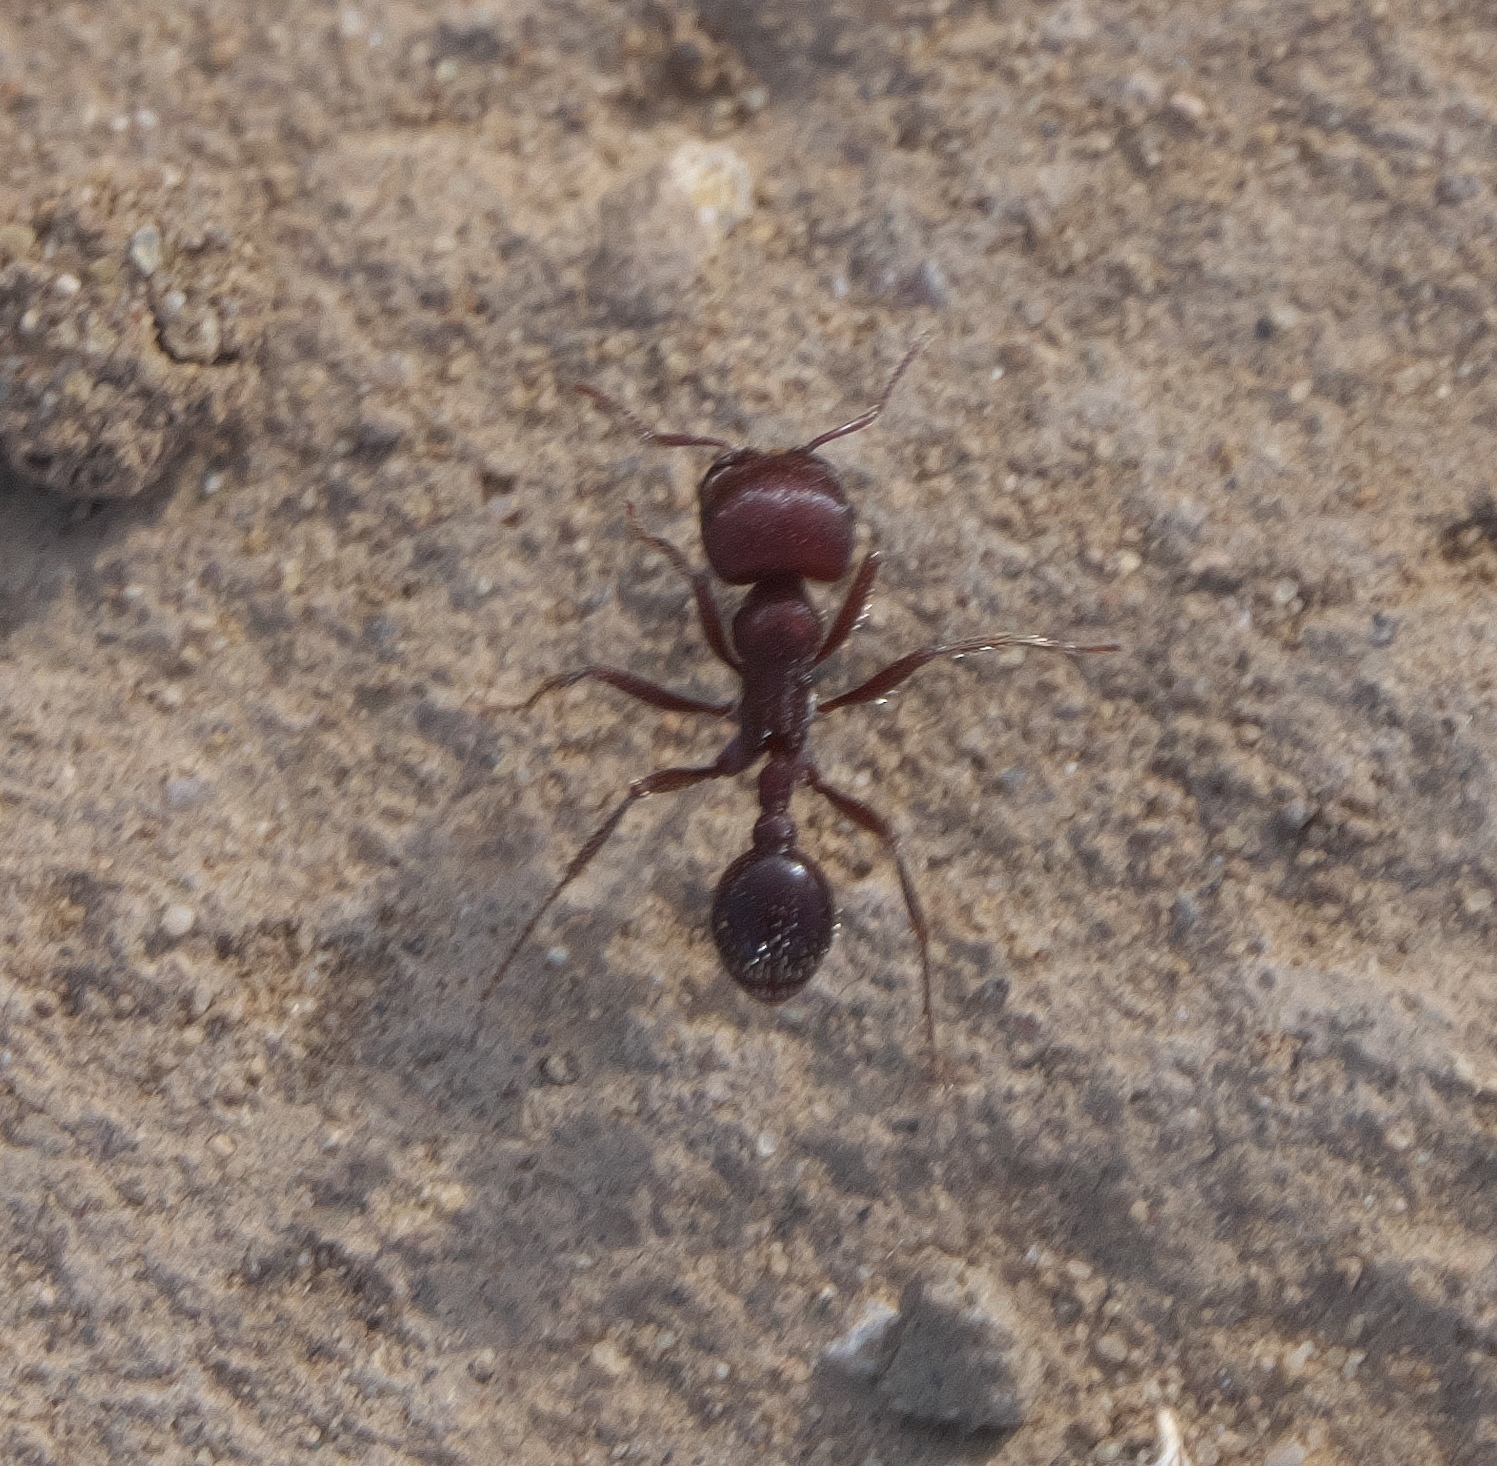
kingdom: Animalia
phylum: Arthropoda
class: Insecta
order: Hymenoptera
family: Formicidae
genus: Pogonomyrmex
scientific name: Pogonomyrmex
